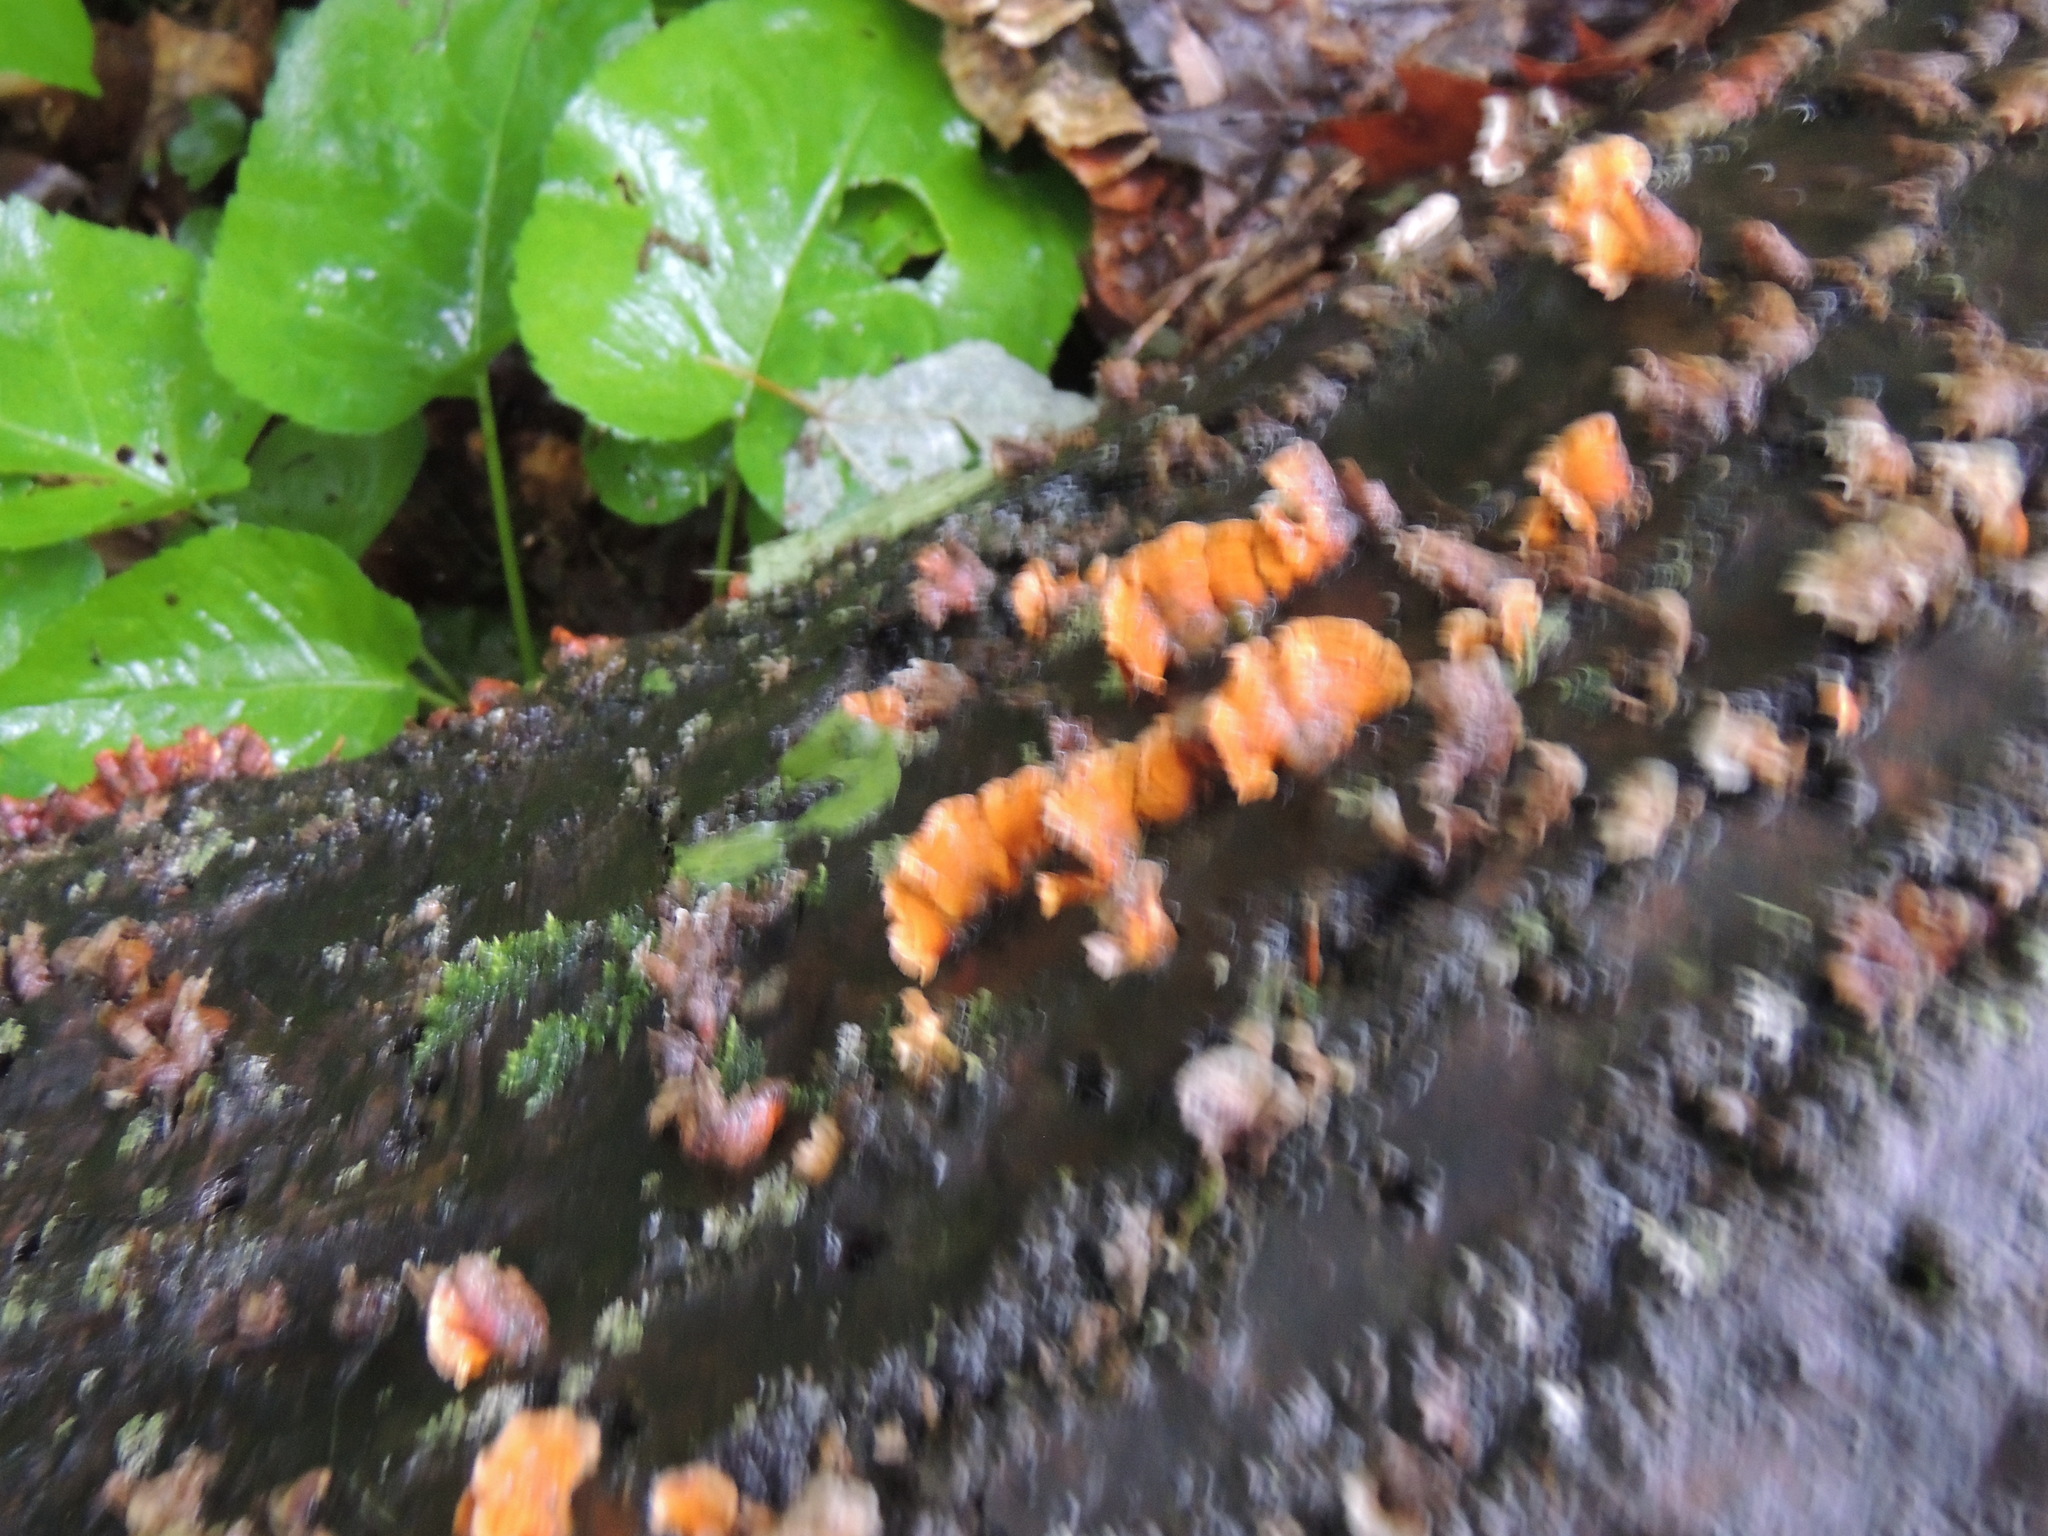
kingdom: Fungi
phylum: Basidiomycota
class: Agaricomycetes
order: Russulales
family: Stereaceae
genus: Stereum
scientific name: Stereum complicatum
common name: Crowded parchment
